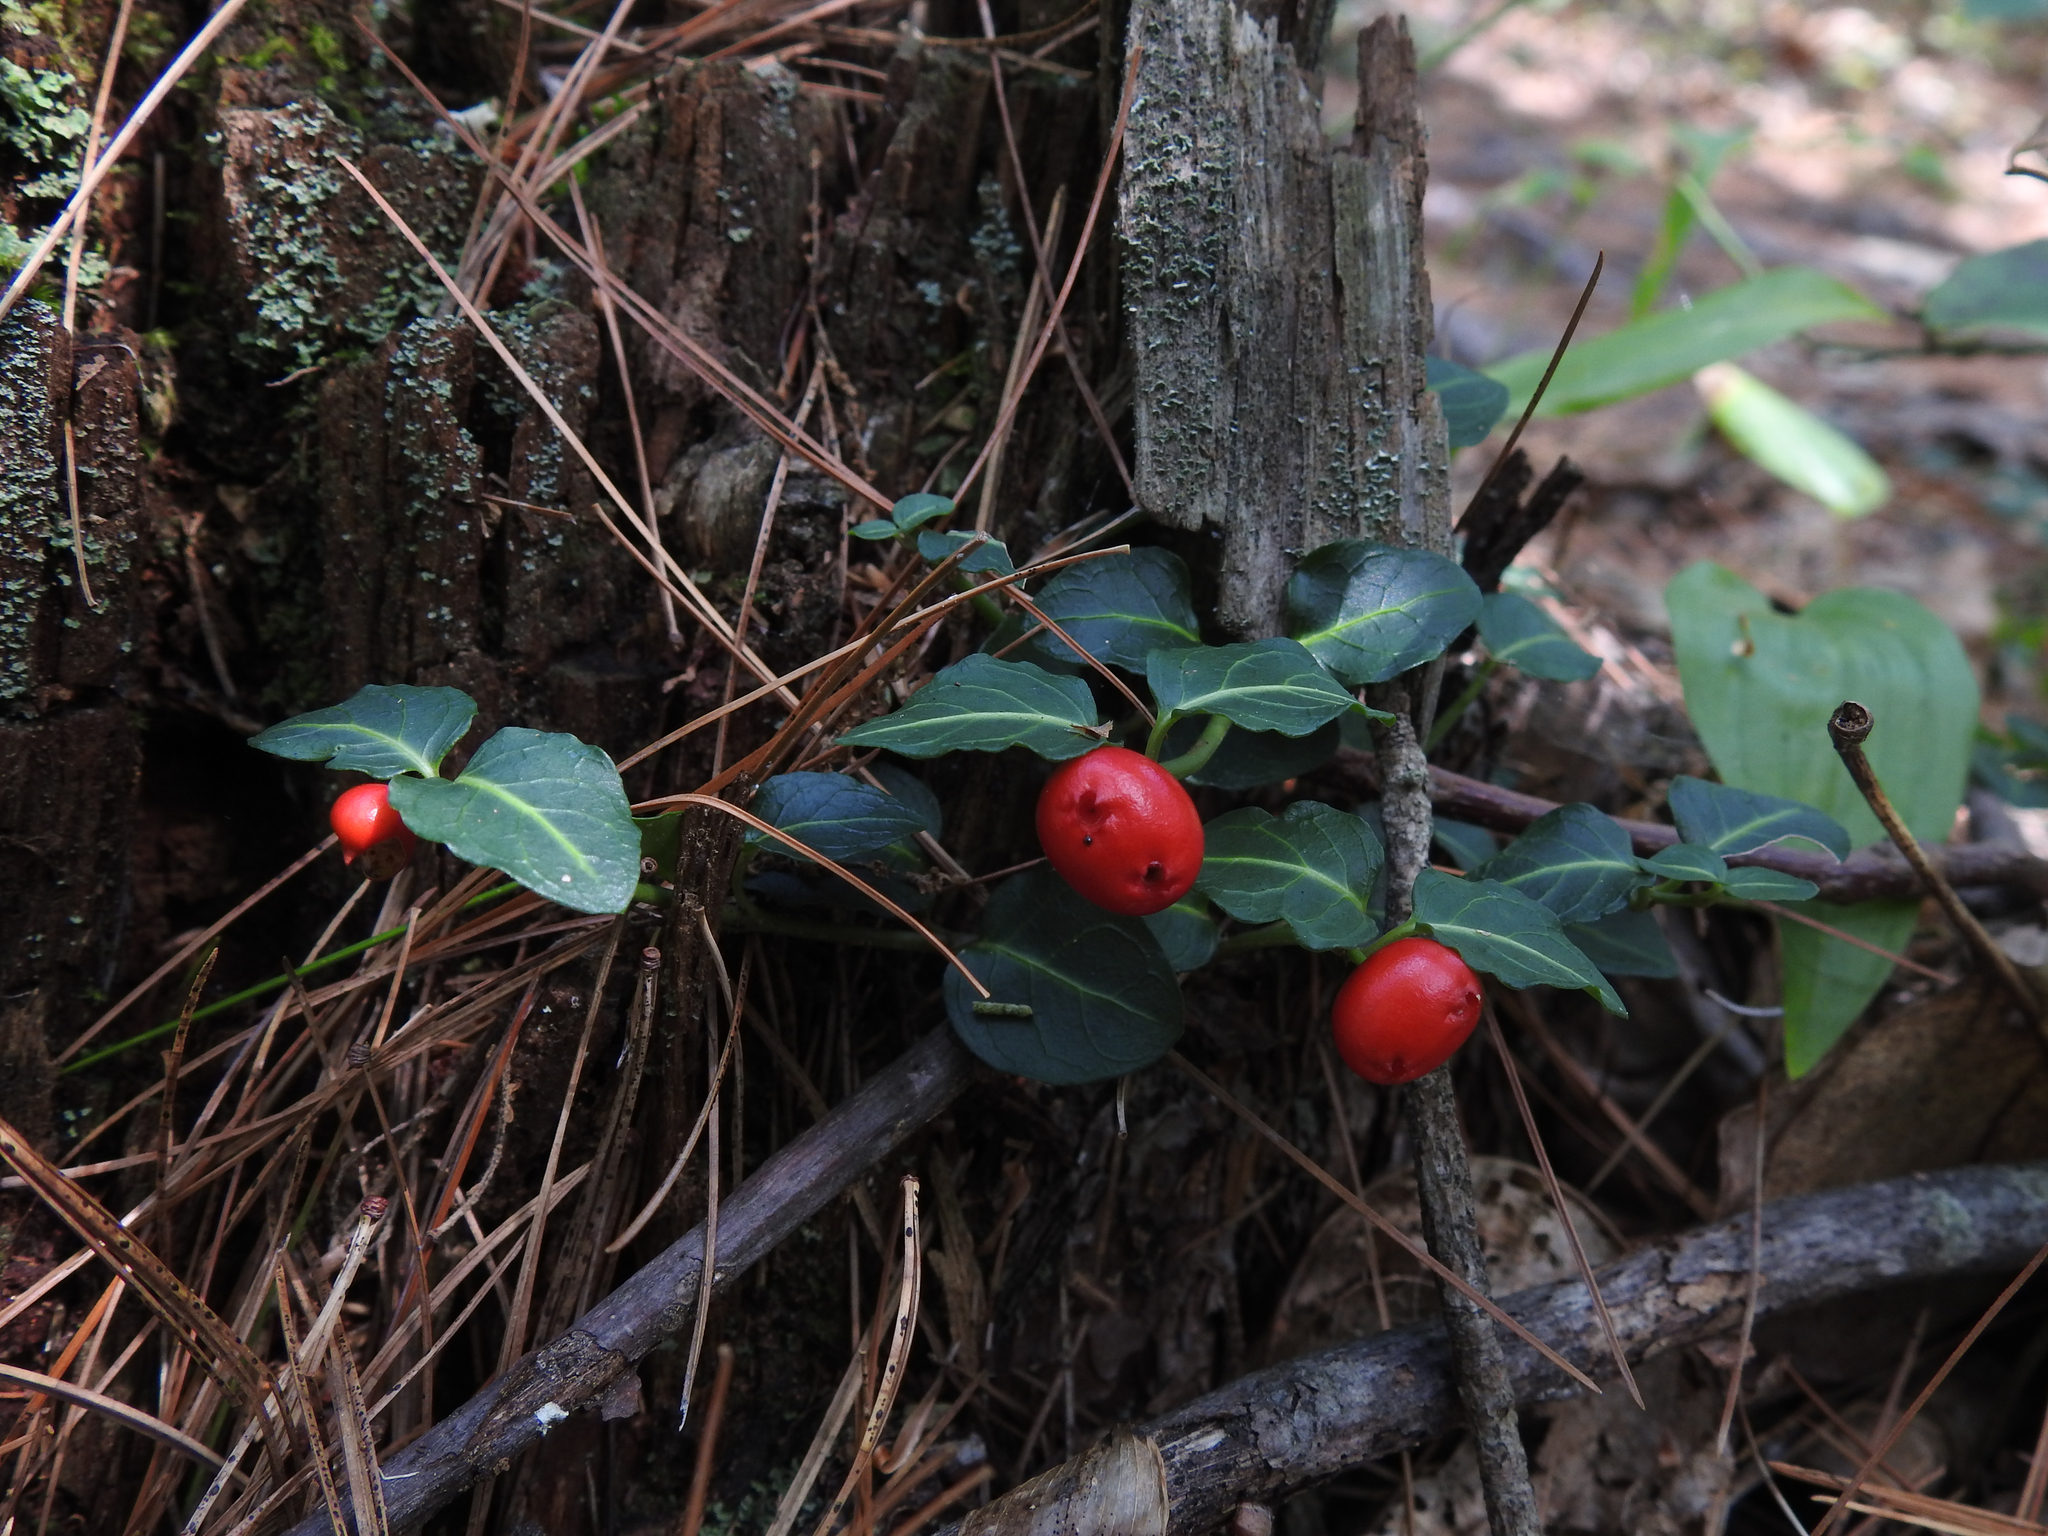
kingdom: Plantae
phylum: Tracheophyta
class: Magnoliopsida
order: Gentianales
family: Rubiaceae
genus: Mitchella
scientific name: Mitchella repens
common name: Partridge-berry
